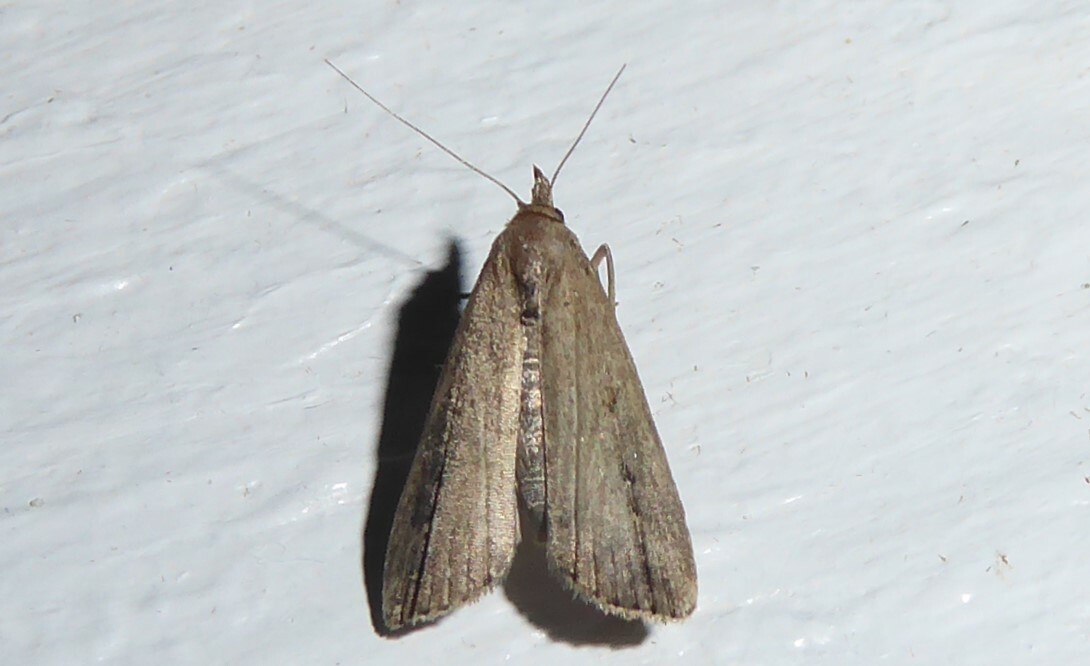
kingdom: Animalia
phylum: Arthropoda
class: Insecta
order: Lepidoptera
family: Erebidae
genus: Schrankia
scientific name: Schrankia costaestrigalis
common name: Pinion-streaked snout
